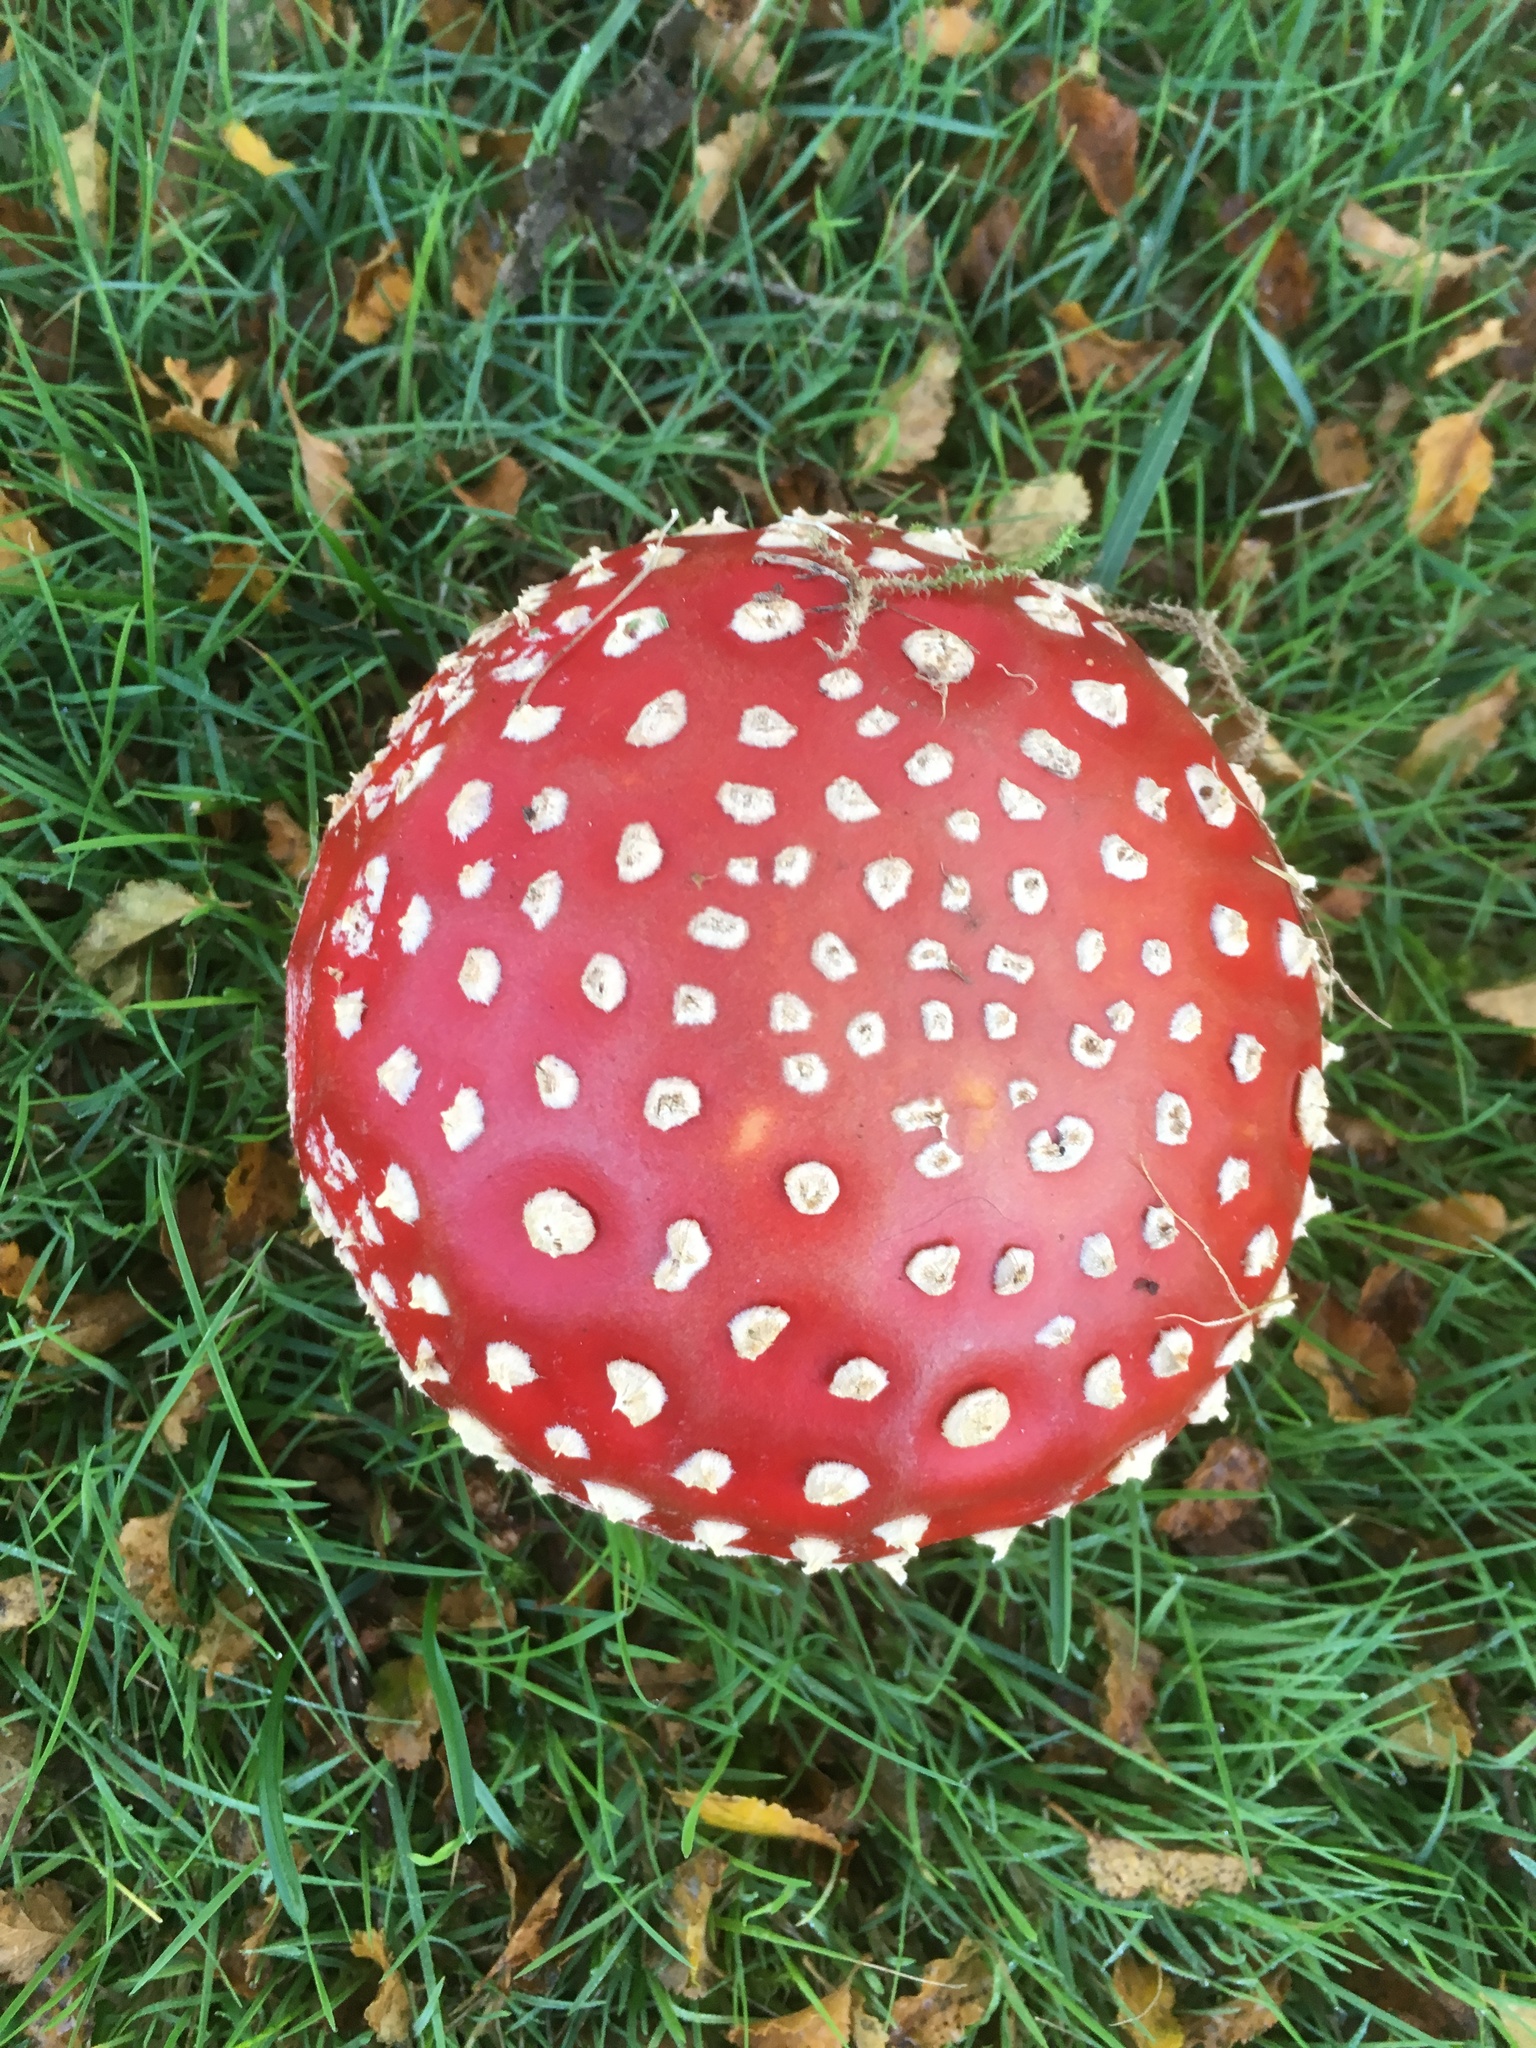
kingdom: Fungi
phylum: Basidiomycota
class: Agaricomycetes
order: Agaricales
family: Amanitaceae
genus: Amanita
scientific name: Amanita muscaria
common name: Fly agaric
